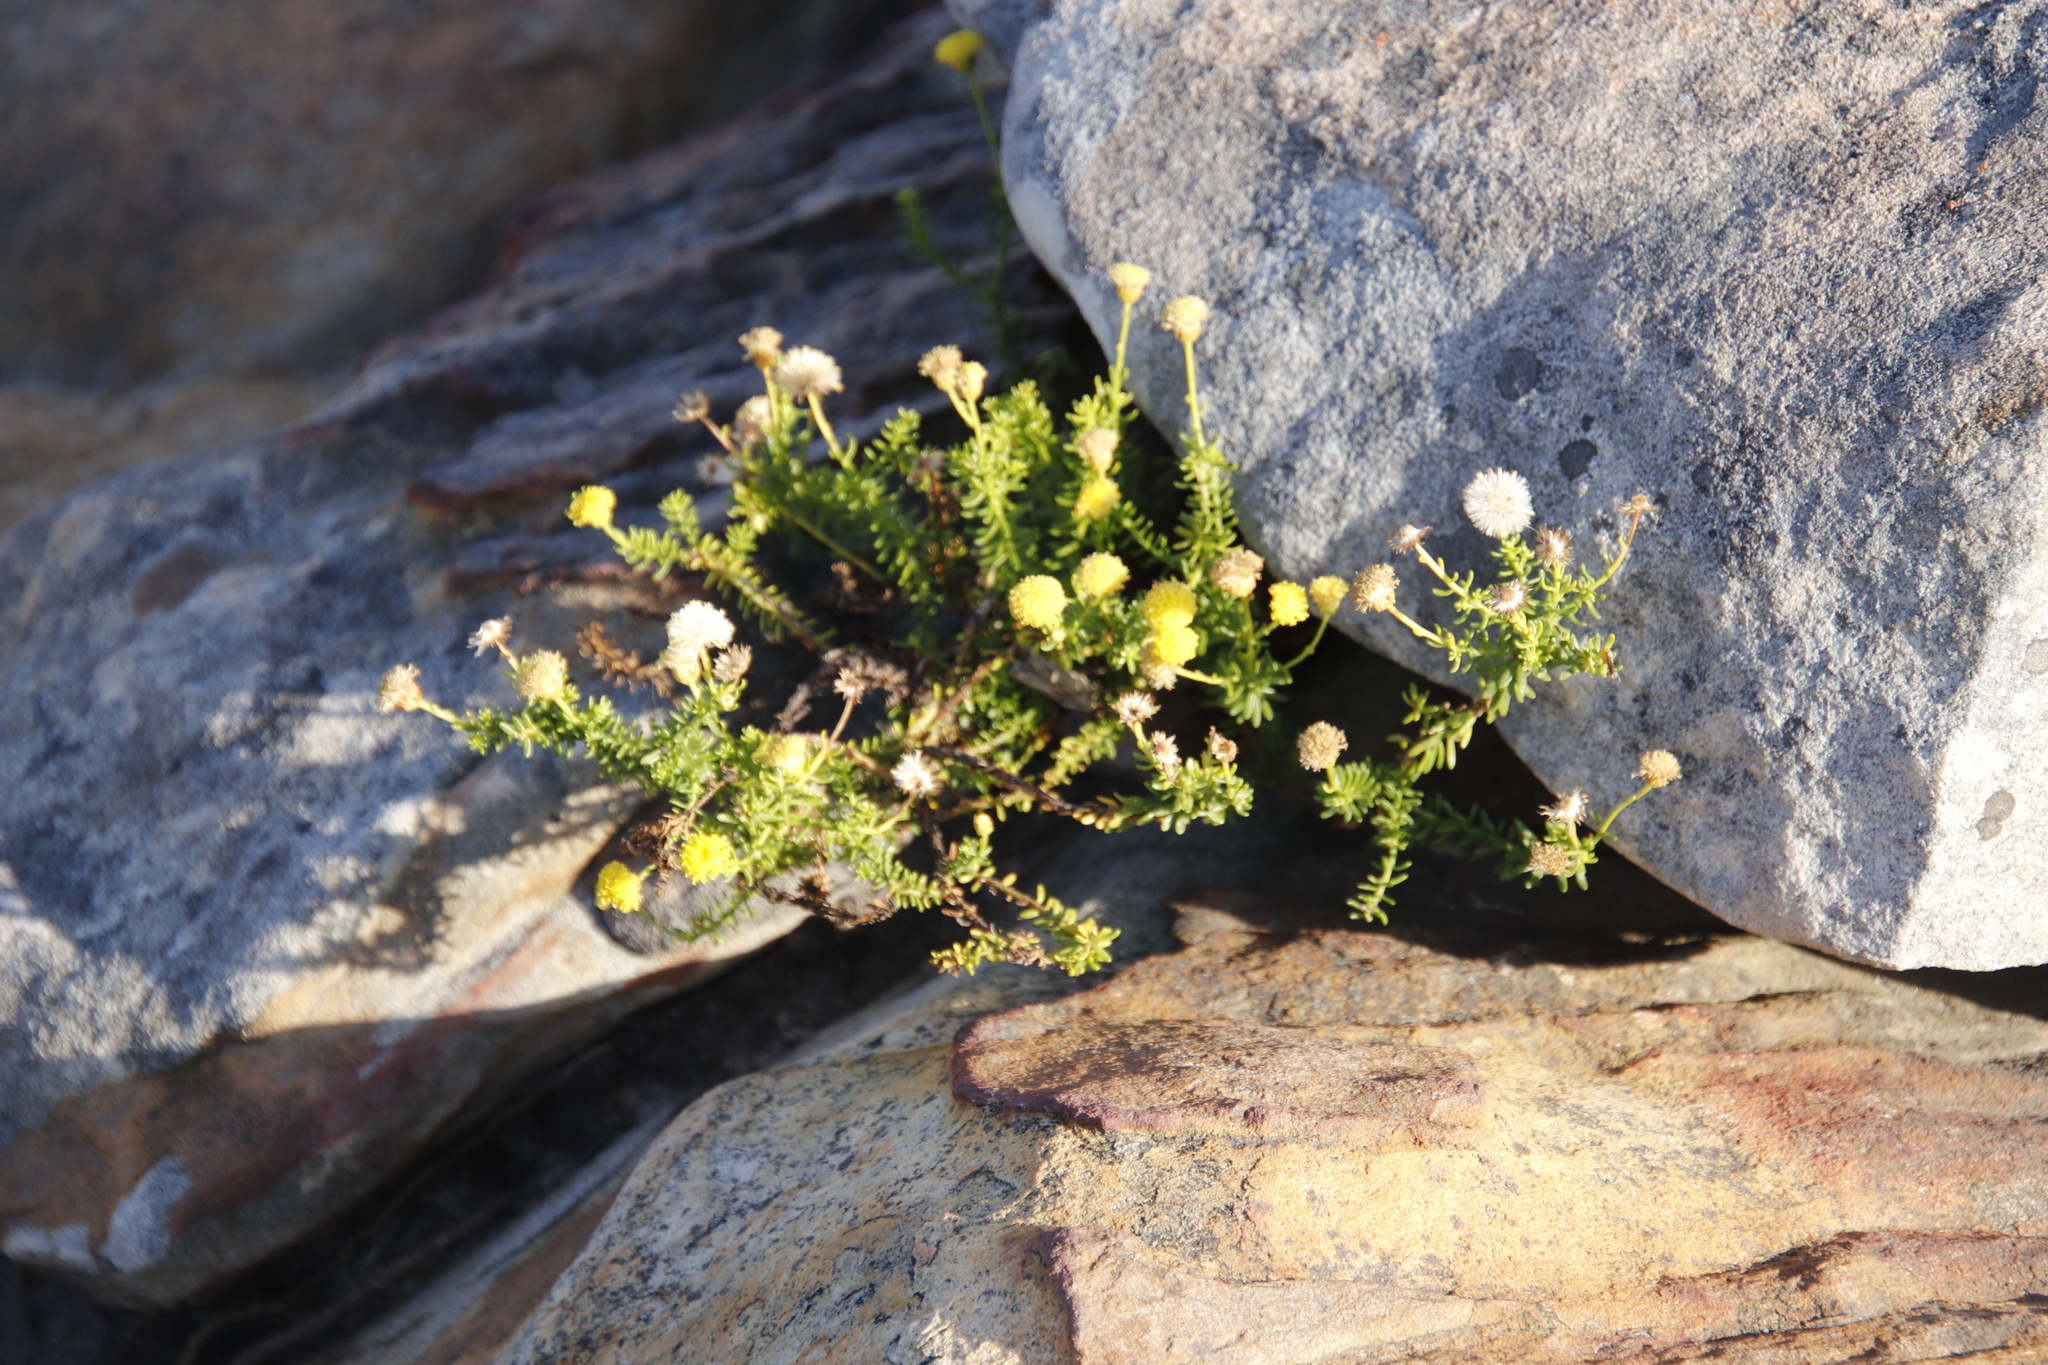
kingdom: Plantae
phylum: Tracheophyta
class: Magnoliopsida
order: Asterales
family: Asteraceae
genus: Chrysocoma
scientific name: Chrysocoma cernua
